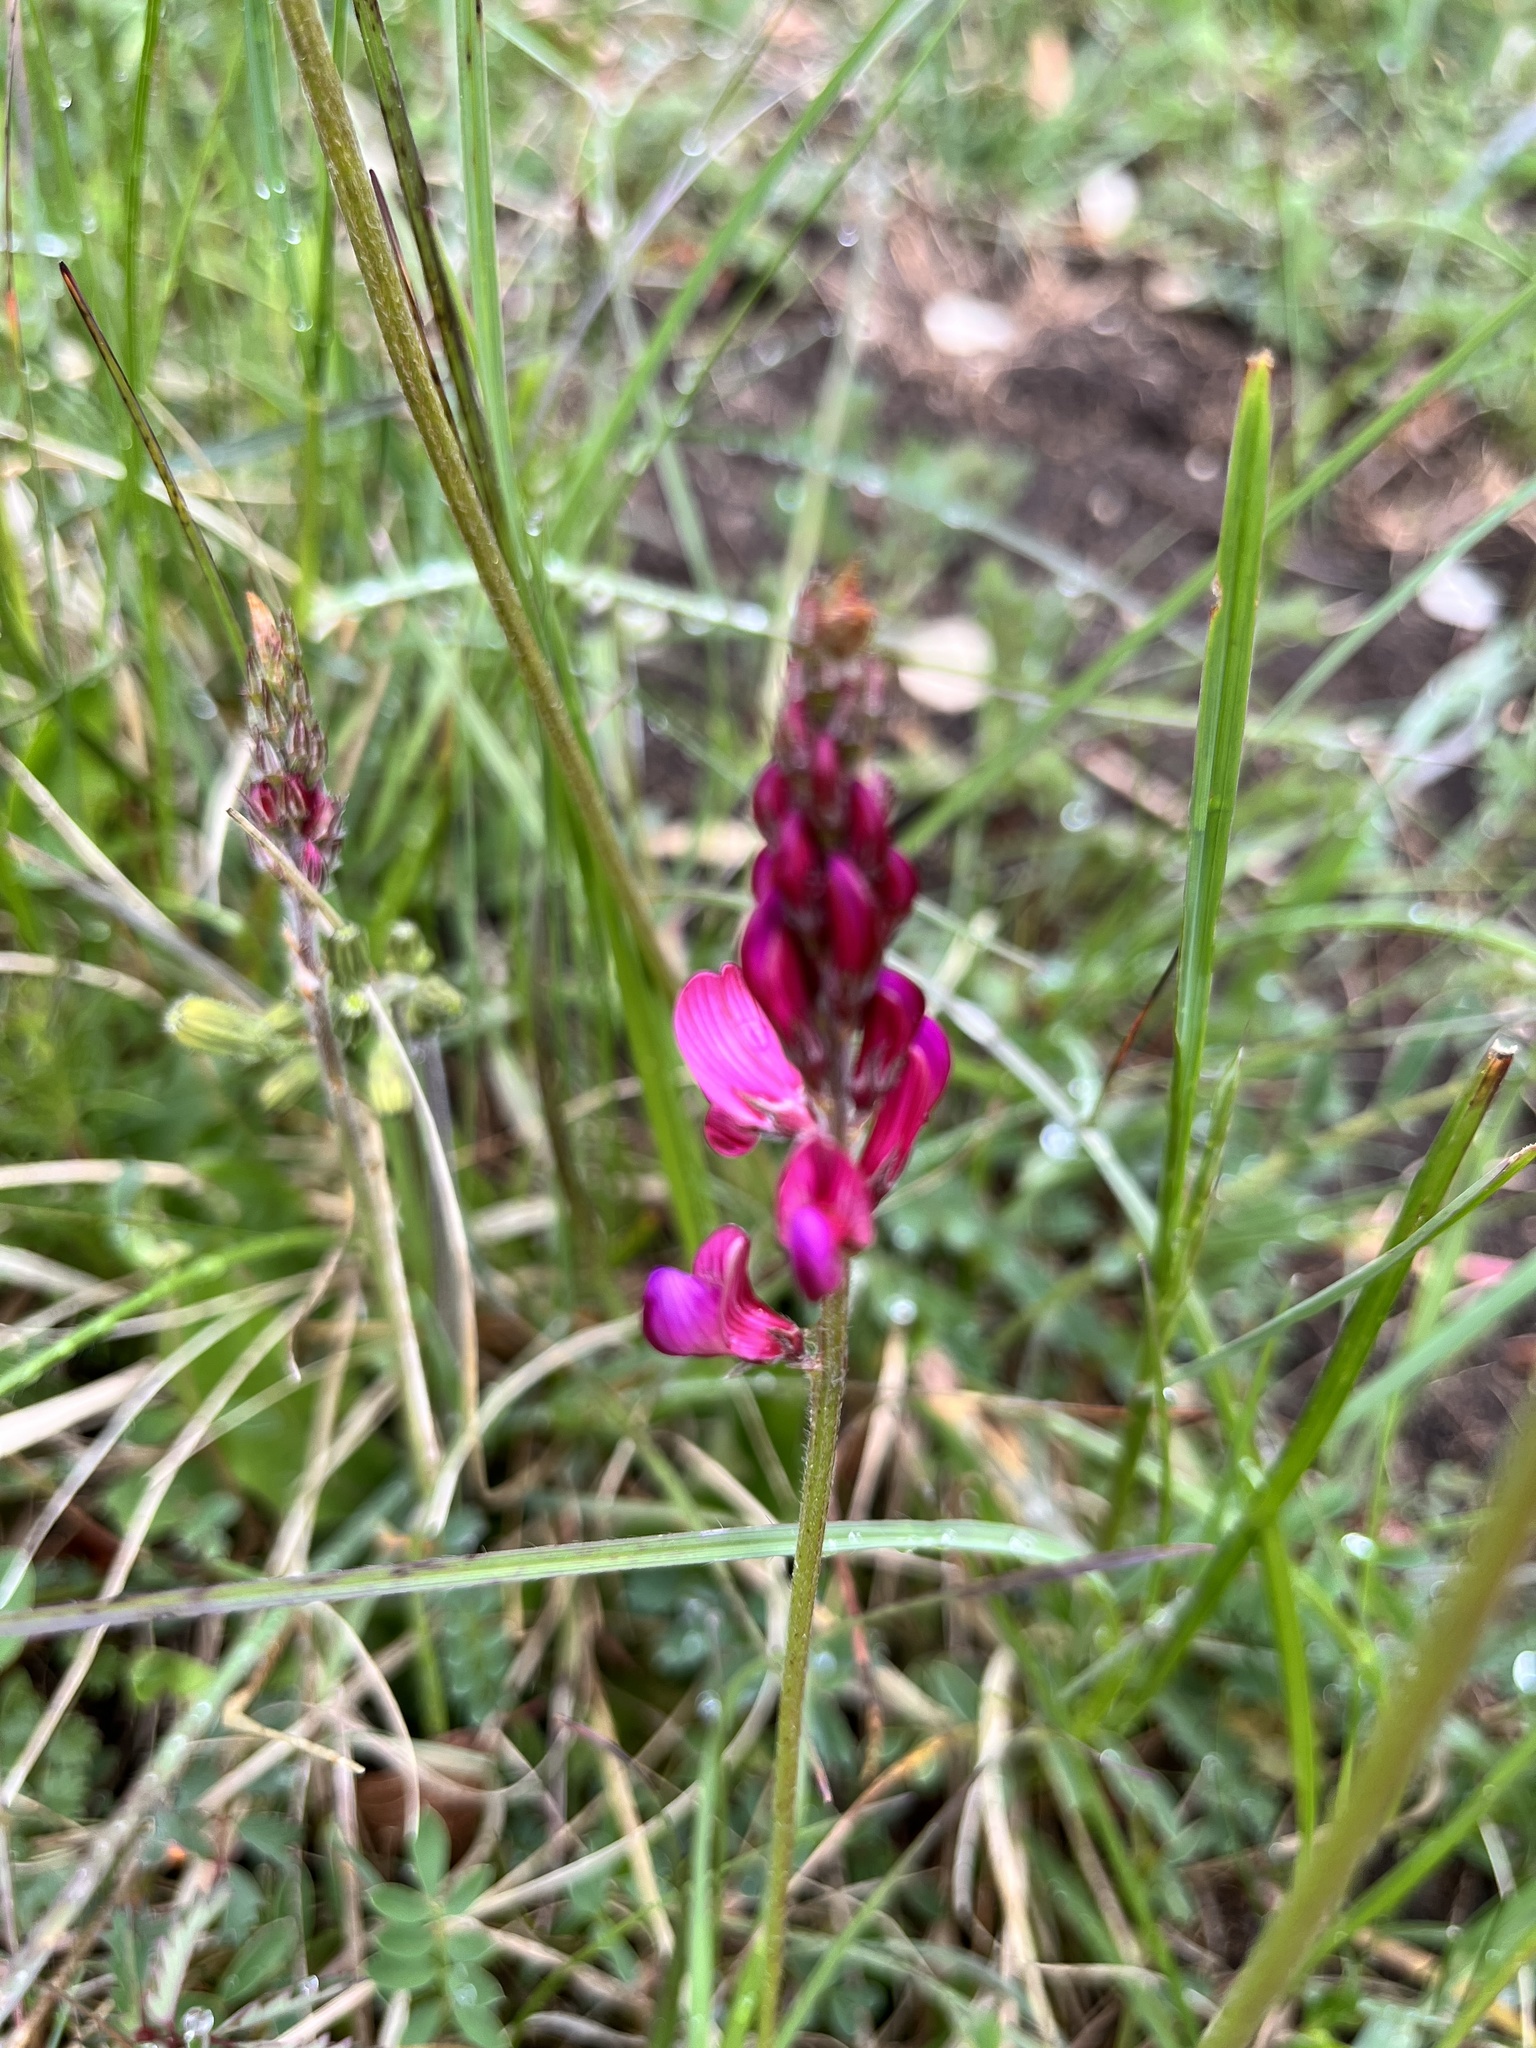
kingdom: Plantae
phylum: Tracheophyta
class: Magnoliopsida
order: Fabales
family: Fabaceae
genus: Onobrychis
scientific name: Onobrychis viciifolia
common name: Sainfoin
